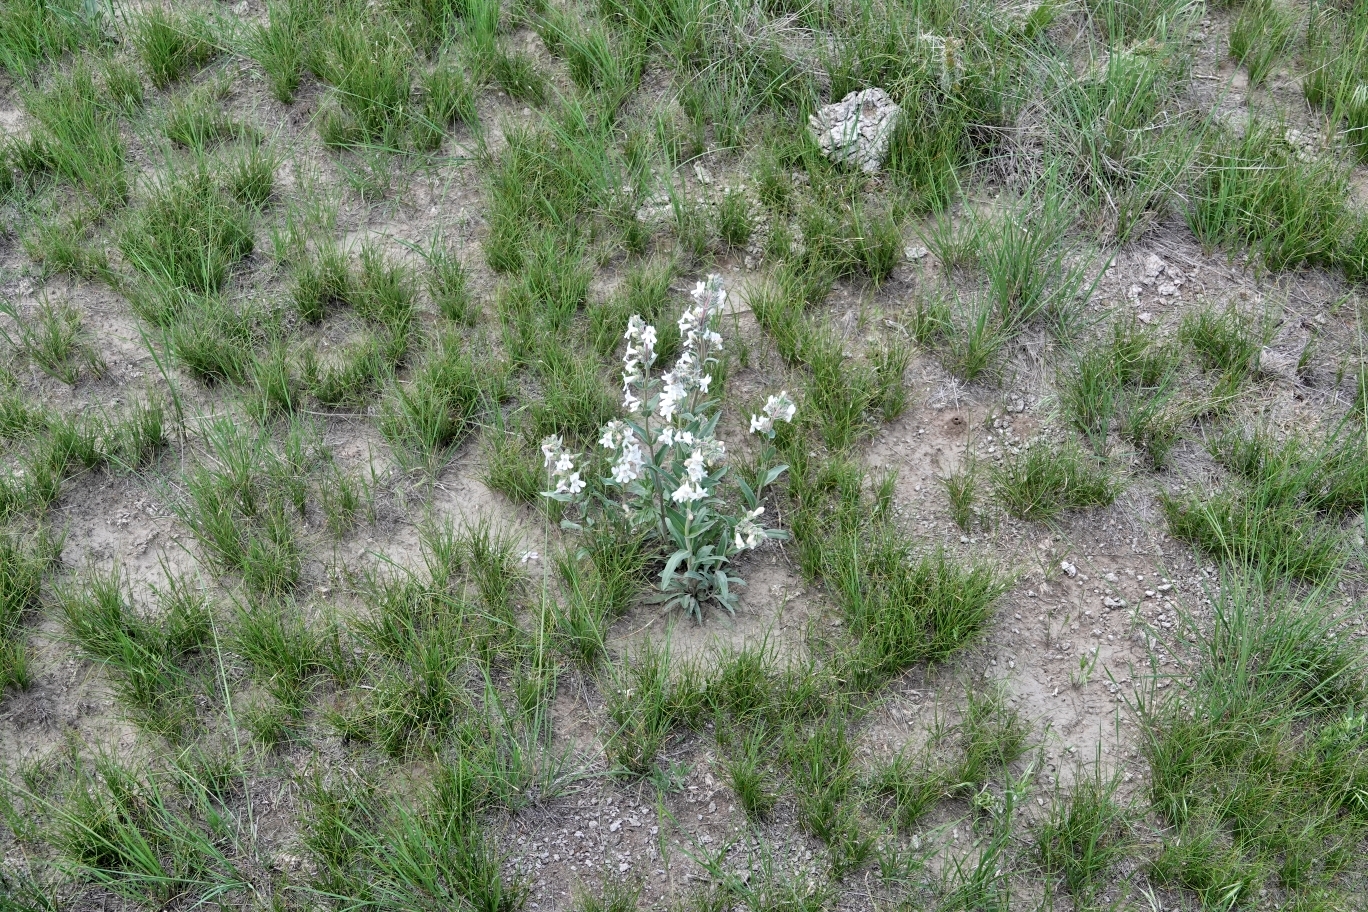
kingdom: Plantae
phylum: Tracheophyta
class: Magnoliopsida
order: Lamiales
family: Plantaginaceae
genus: Penstemon
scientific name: Penstemon albidus
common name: White beardtongue
